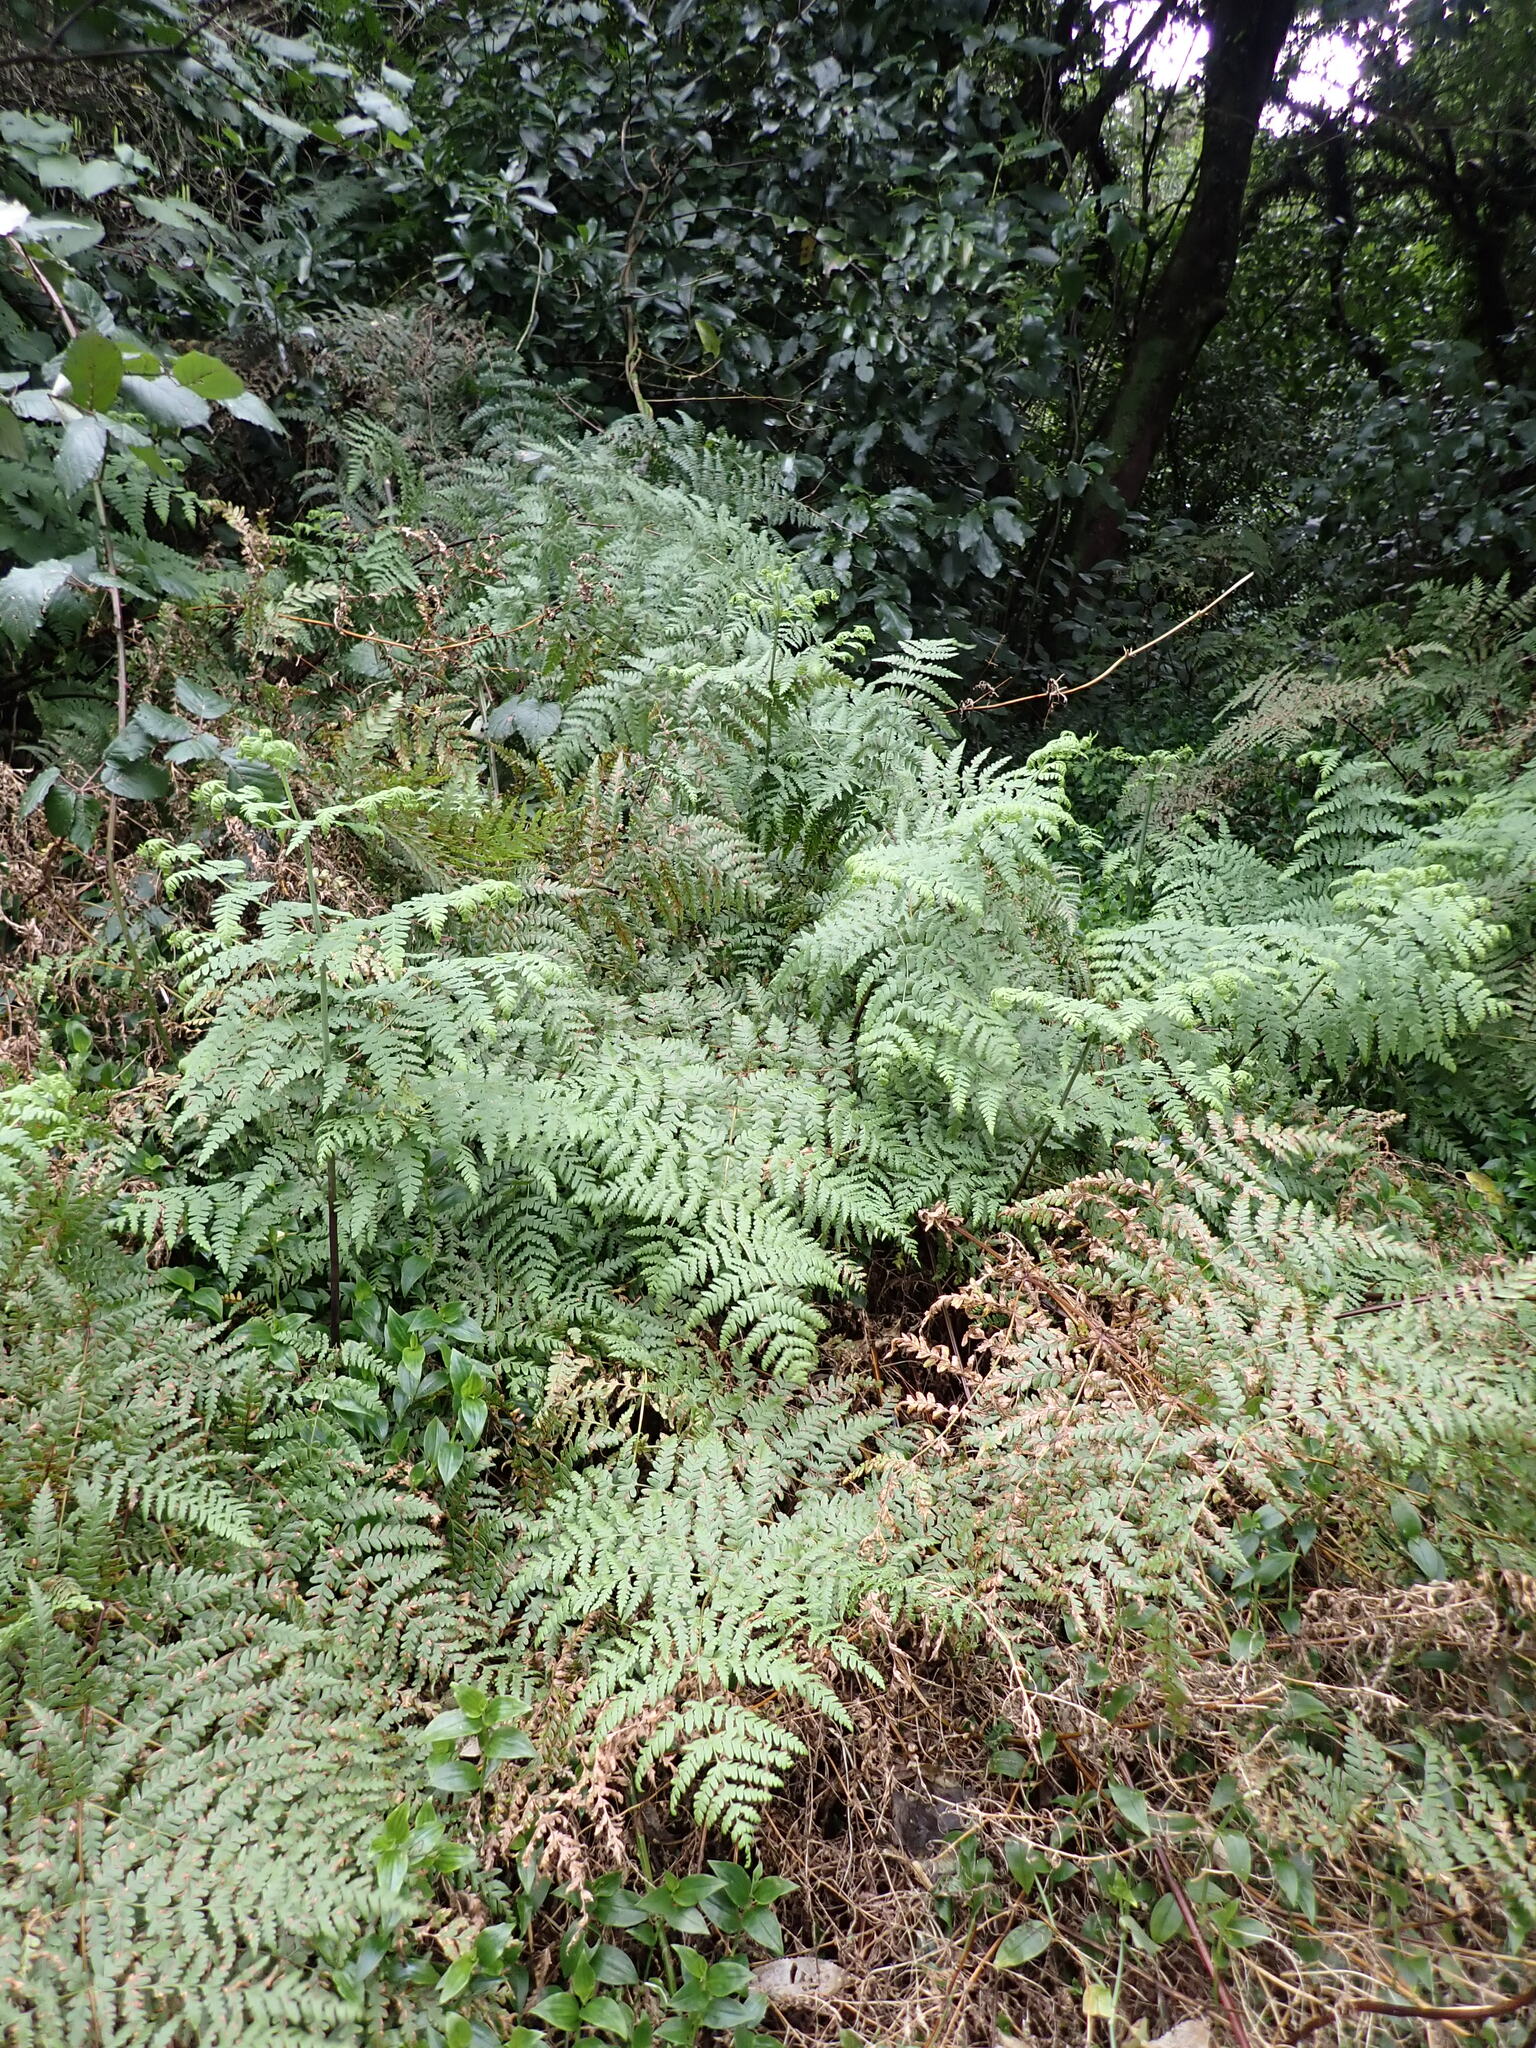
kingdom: Plantae
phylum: Tracheophyta
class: Polypodiopsida
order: Polypodiales
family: Dennstaedtiaceae
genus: Histiopteris
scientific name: Histiopteris incisa
